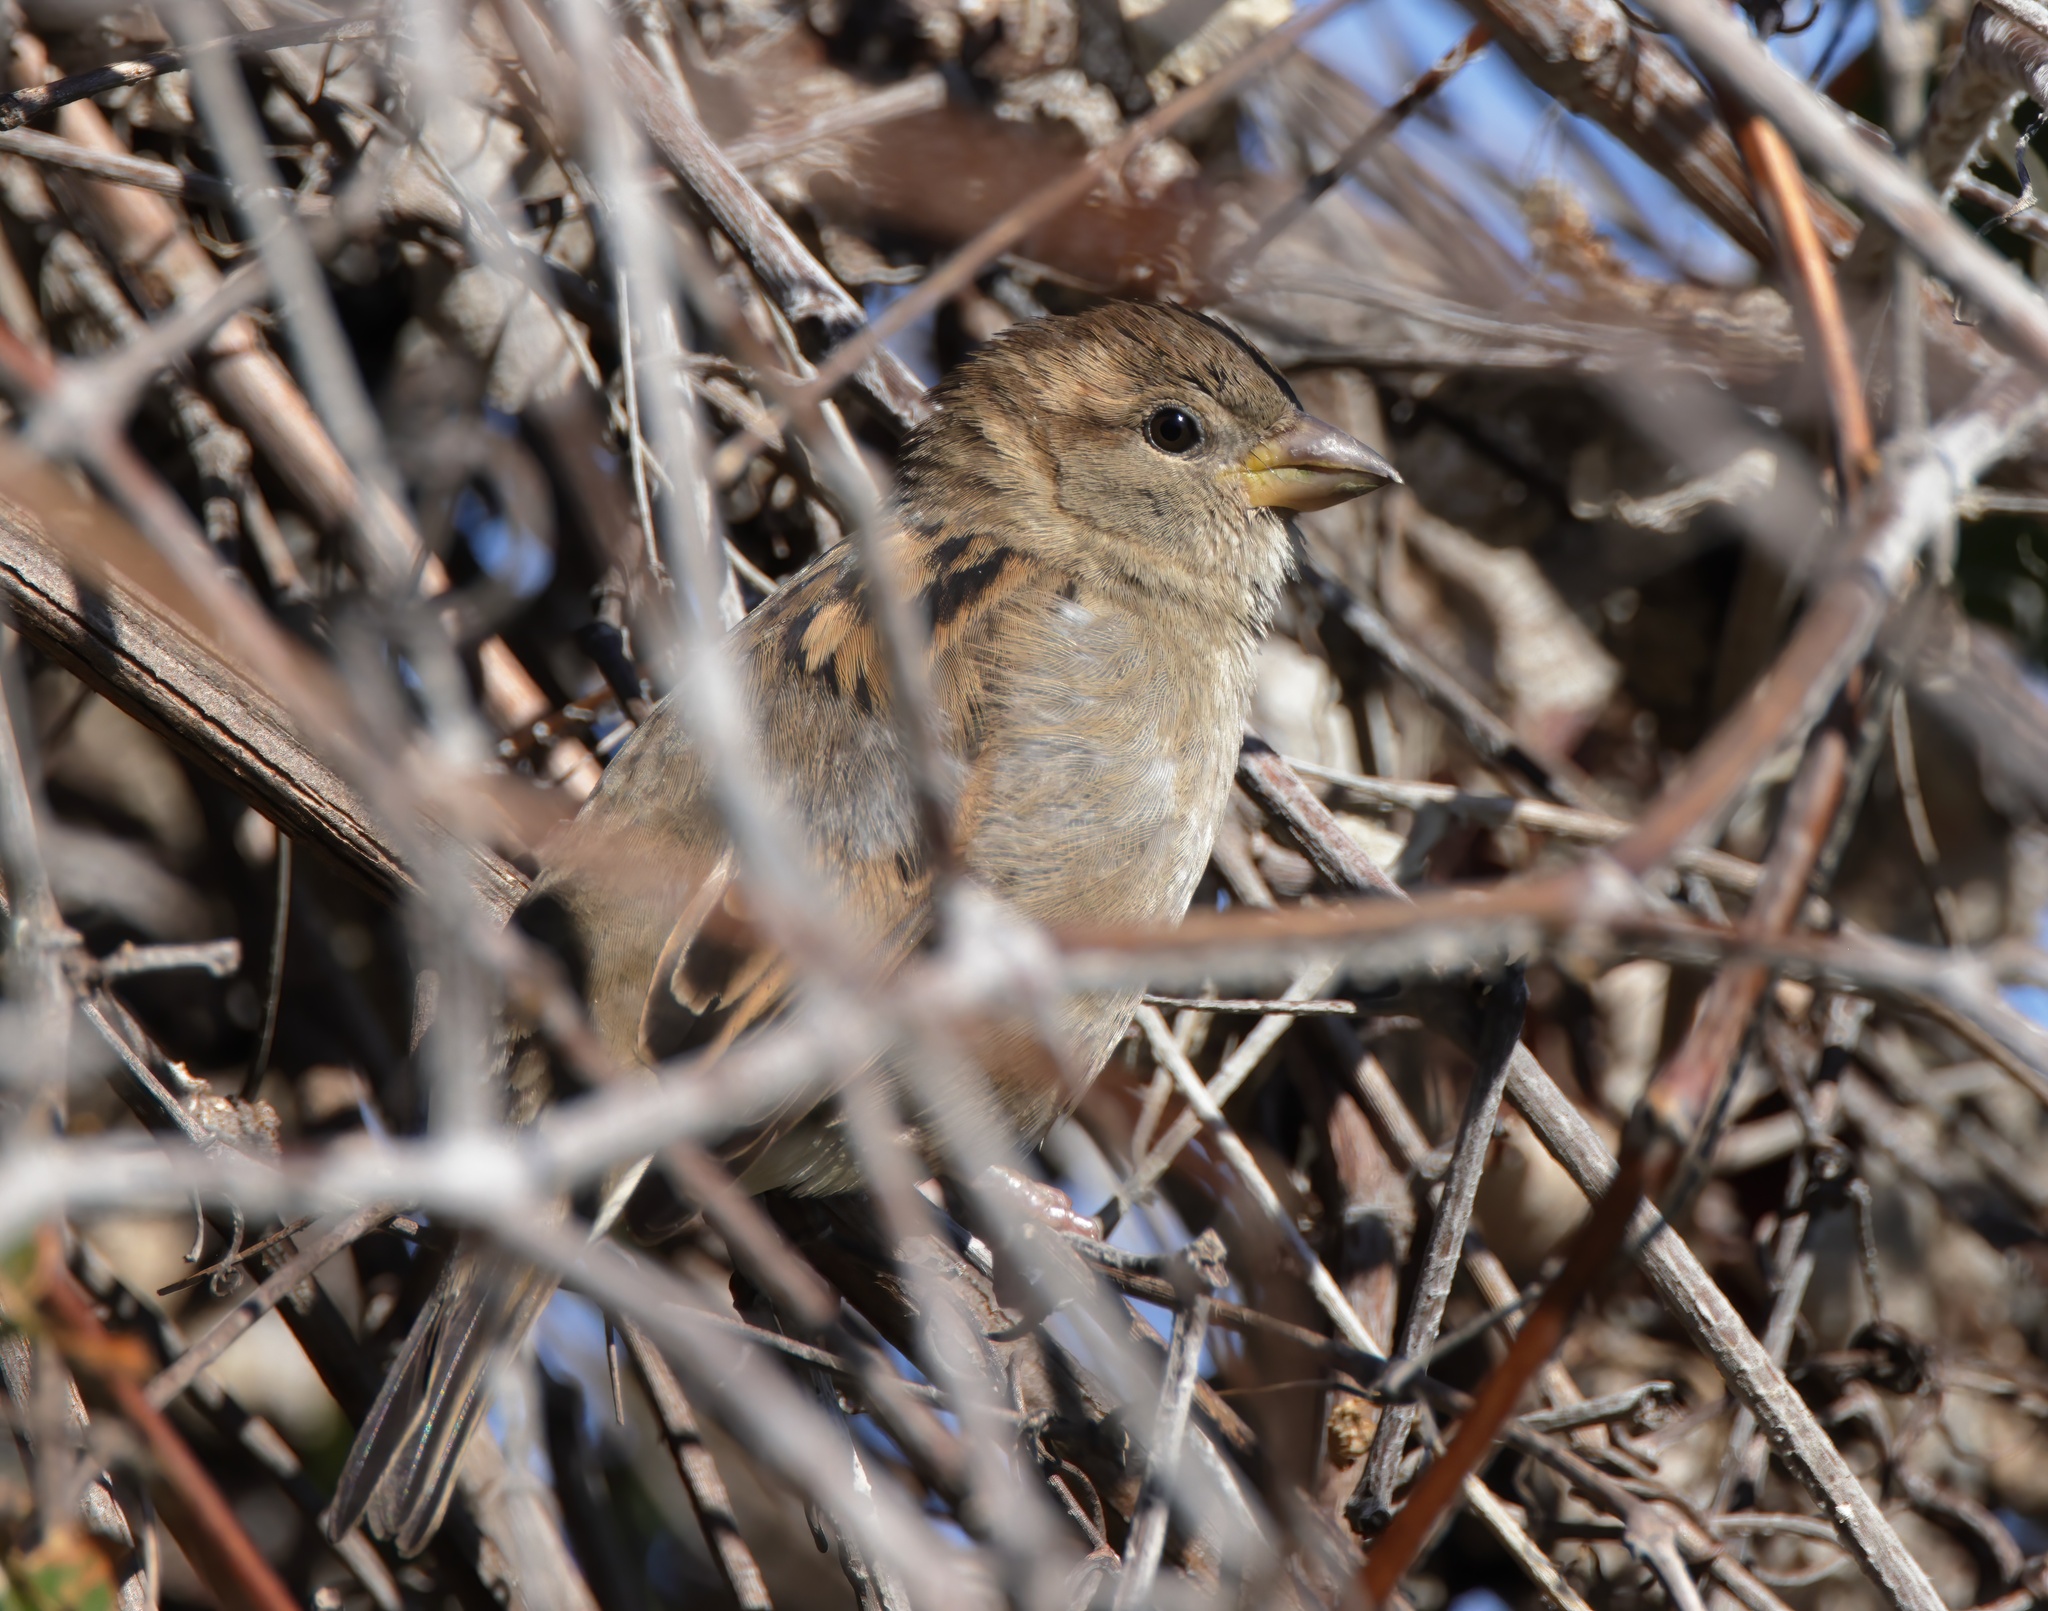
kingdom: Animalia
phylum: Chordata
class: Aves
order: Passeriformes
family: Passeridae
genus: Passer
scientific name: Passer domesticus
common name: House sparrow
